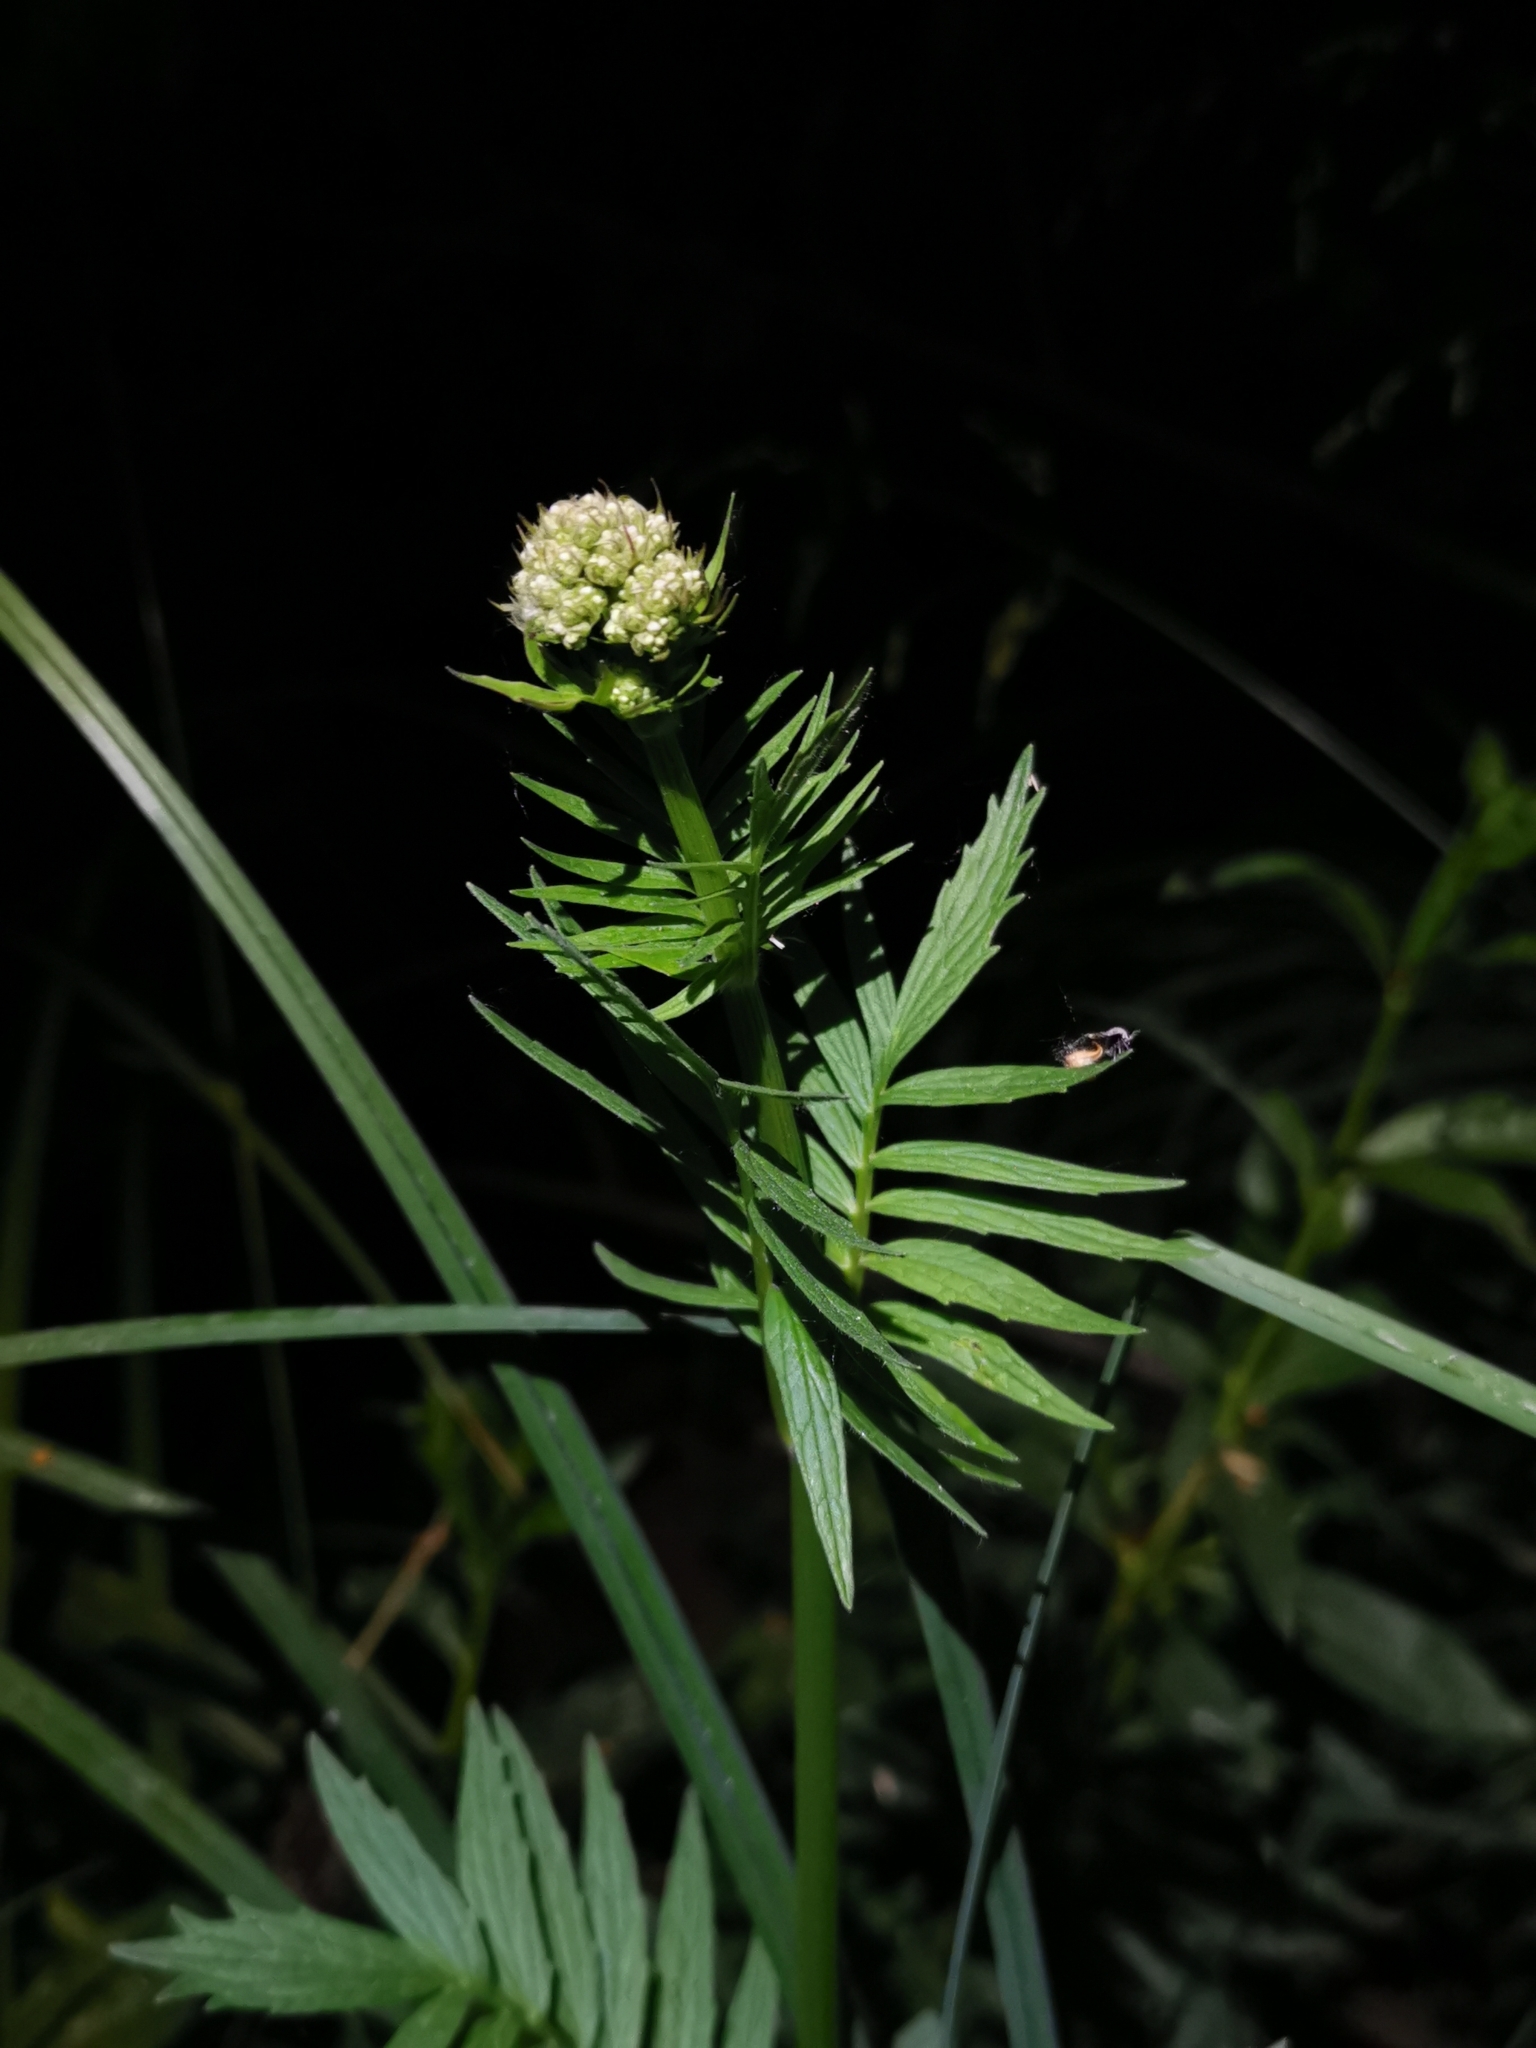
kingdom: Plantae
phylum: Tracheophyta
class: Magnoliopsida
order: Dipsacales
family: Caprifoliaceae
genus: Valeriana
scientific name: Valeriana officinalis
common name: Common valerian
